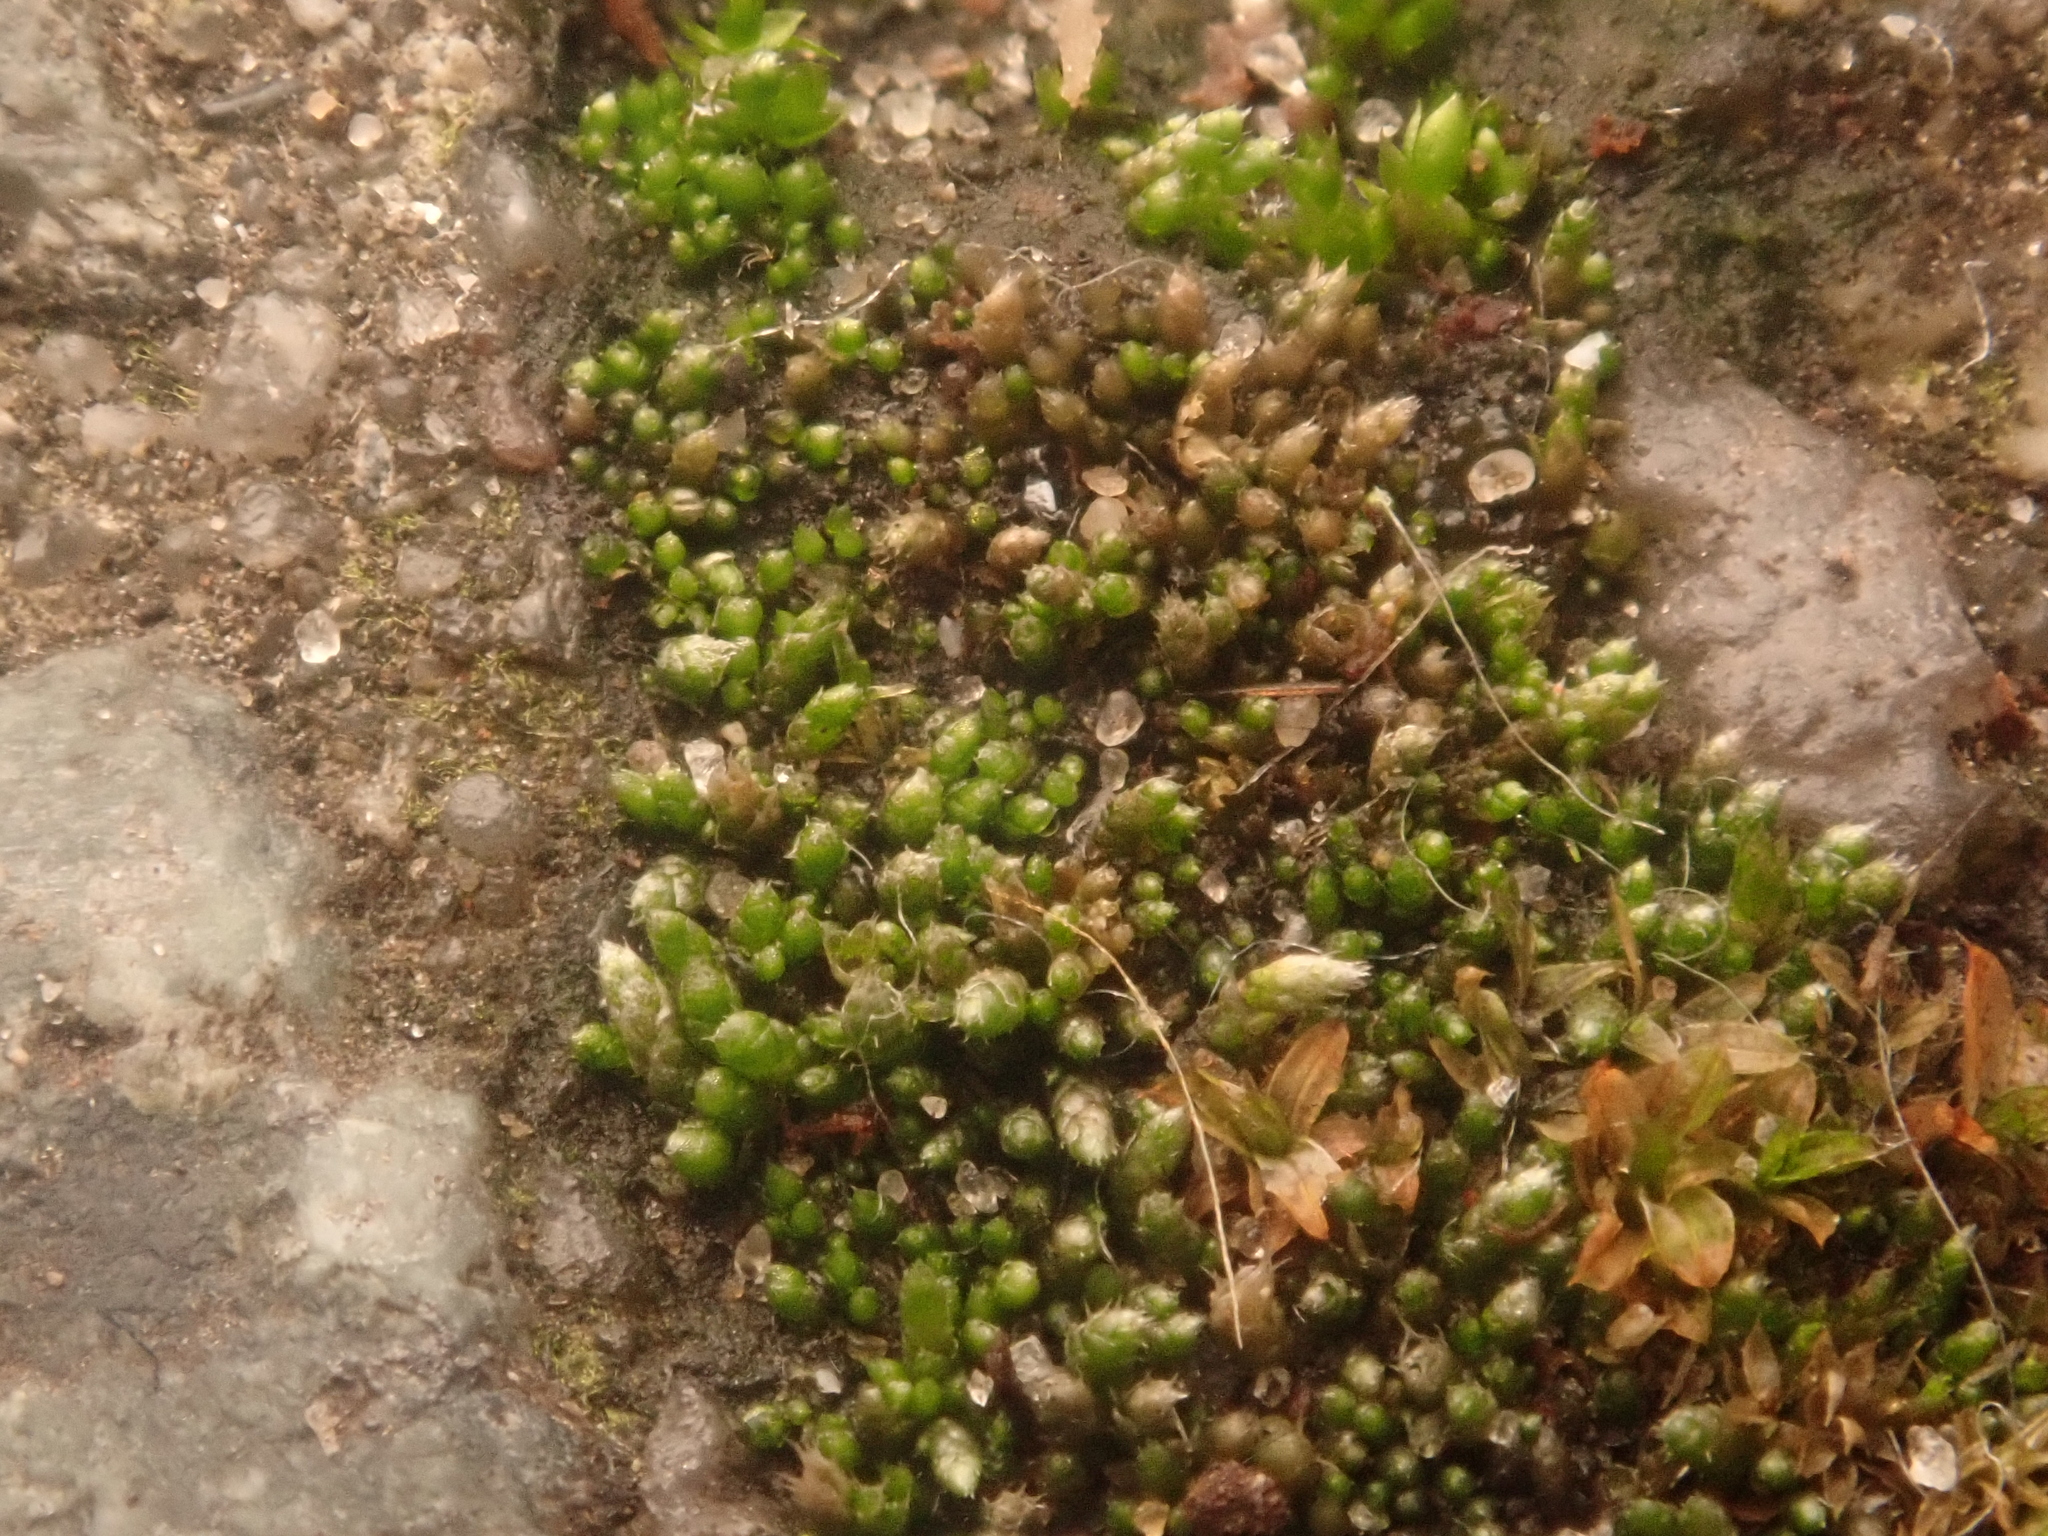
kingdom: Plantae
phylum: Bryophyta
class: Bryopsida
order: Bryales
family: Bryaceae
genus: Bryum
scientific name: Bryum argenteum
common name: Silver-moss
